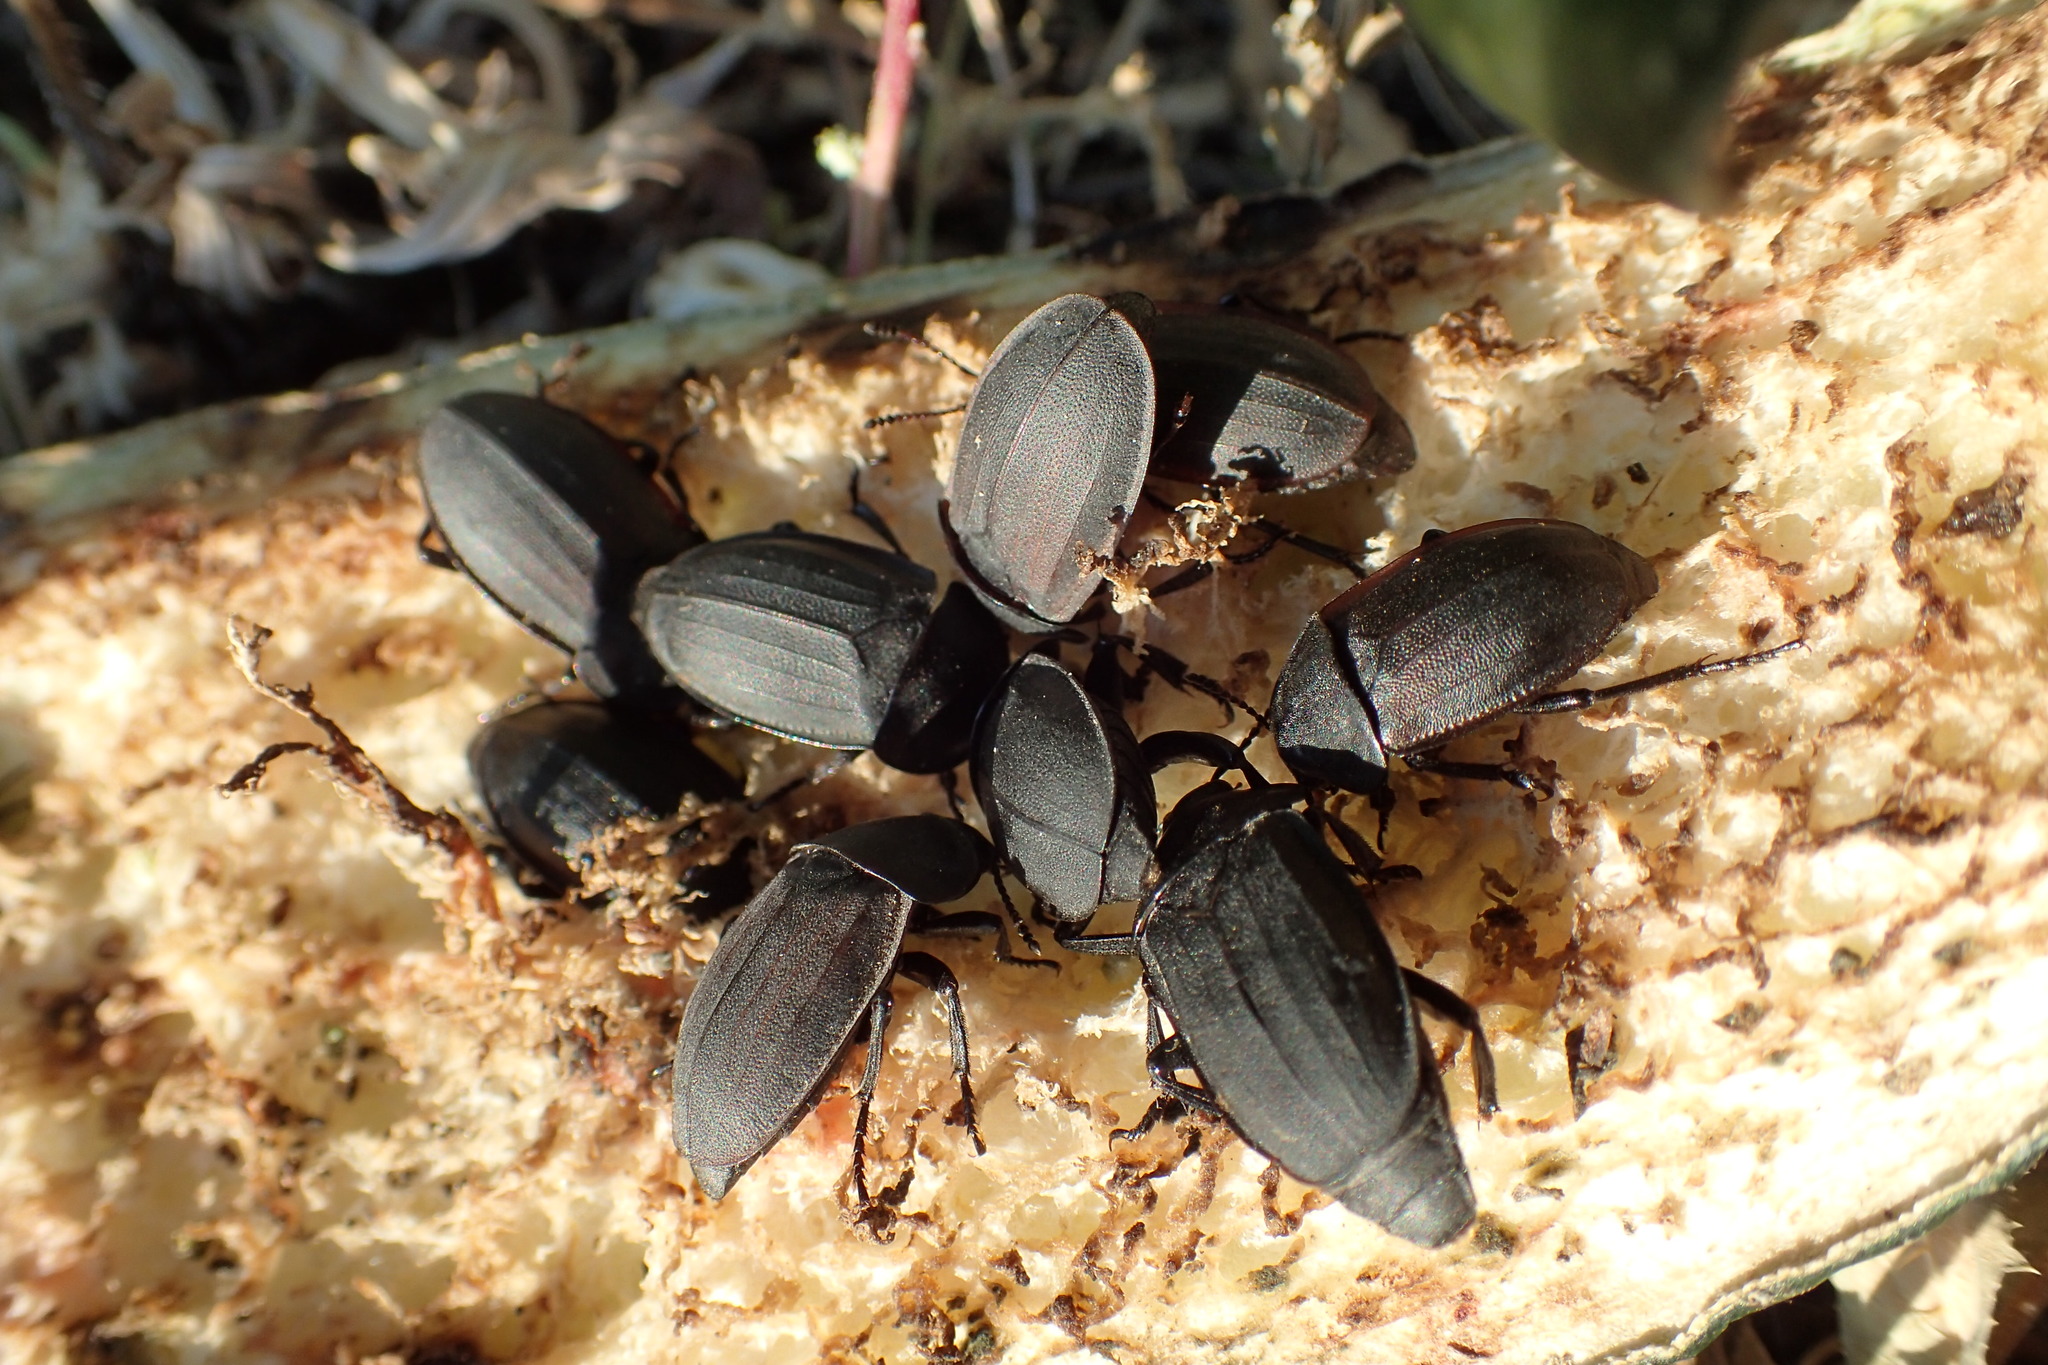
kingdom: Animalia
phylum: Arthropoda
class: Insecta
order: Coleoptera
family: Staphylinidae
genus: Silpha
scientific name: Silpha obscura
